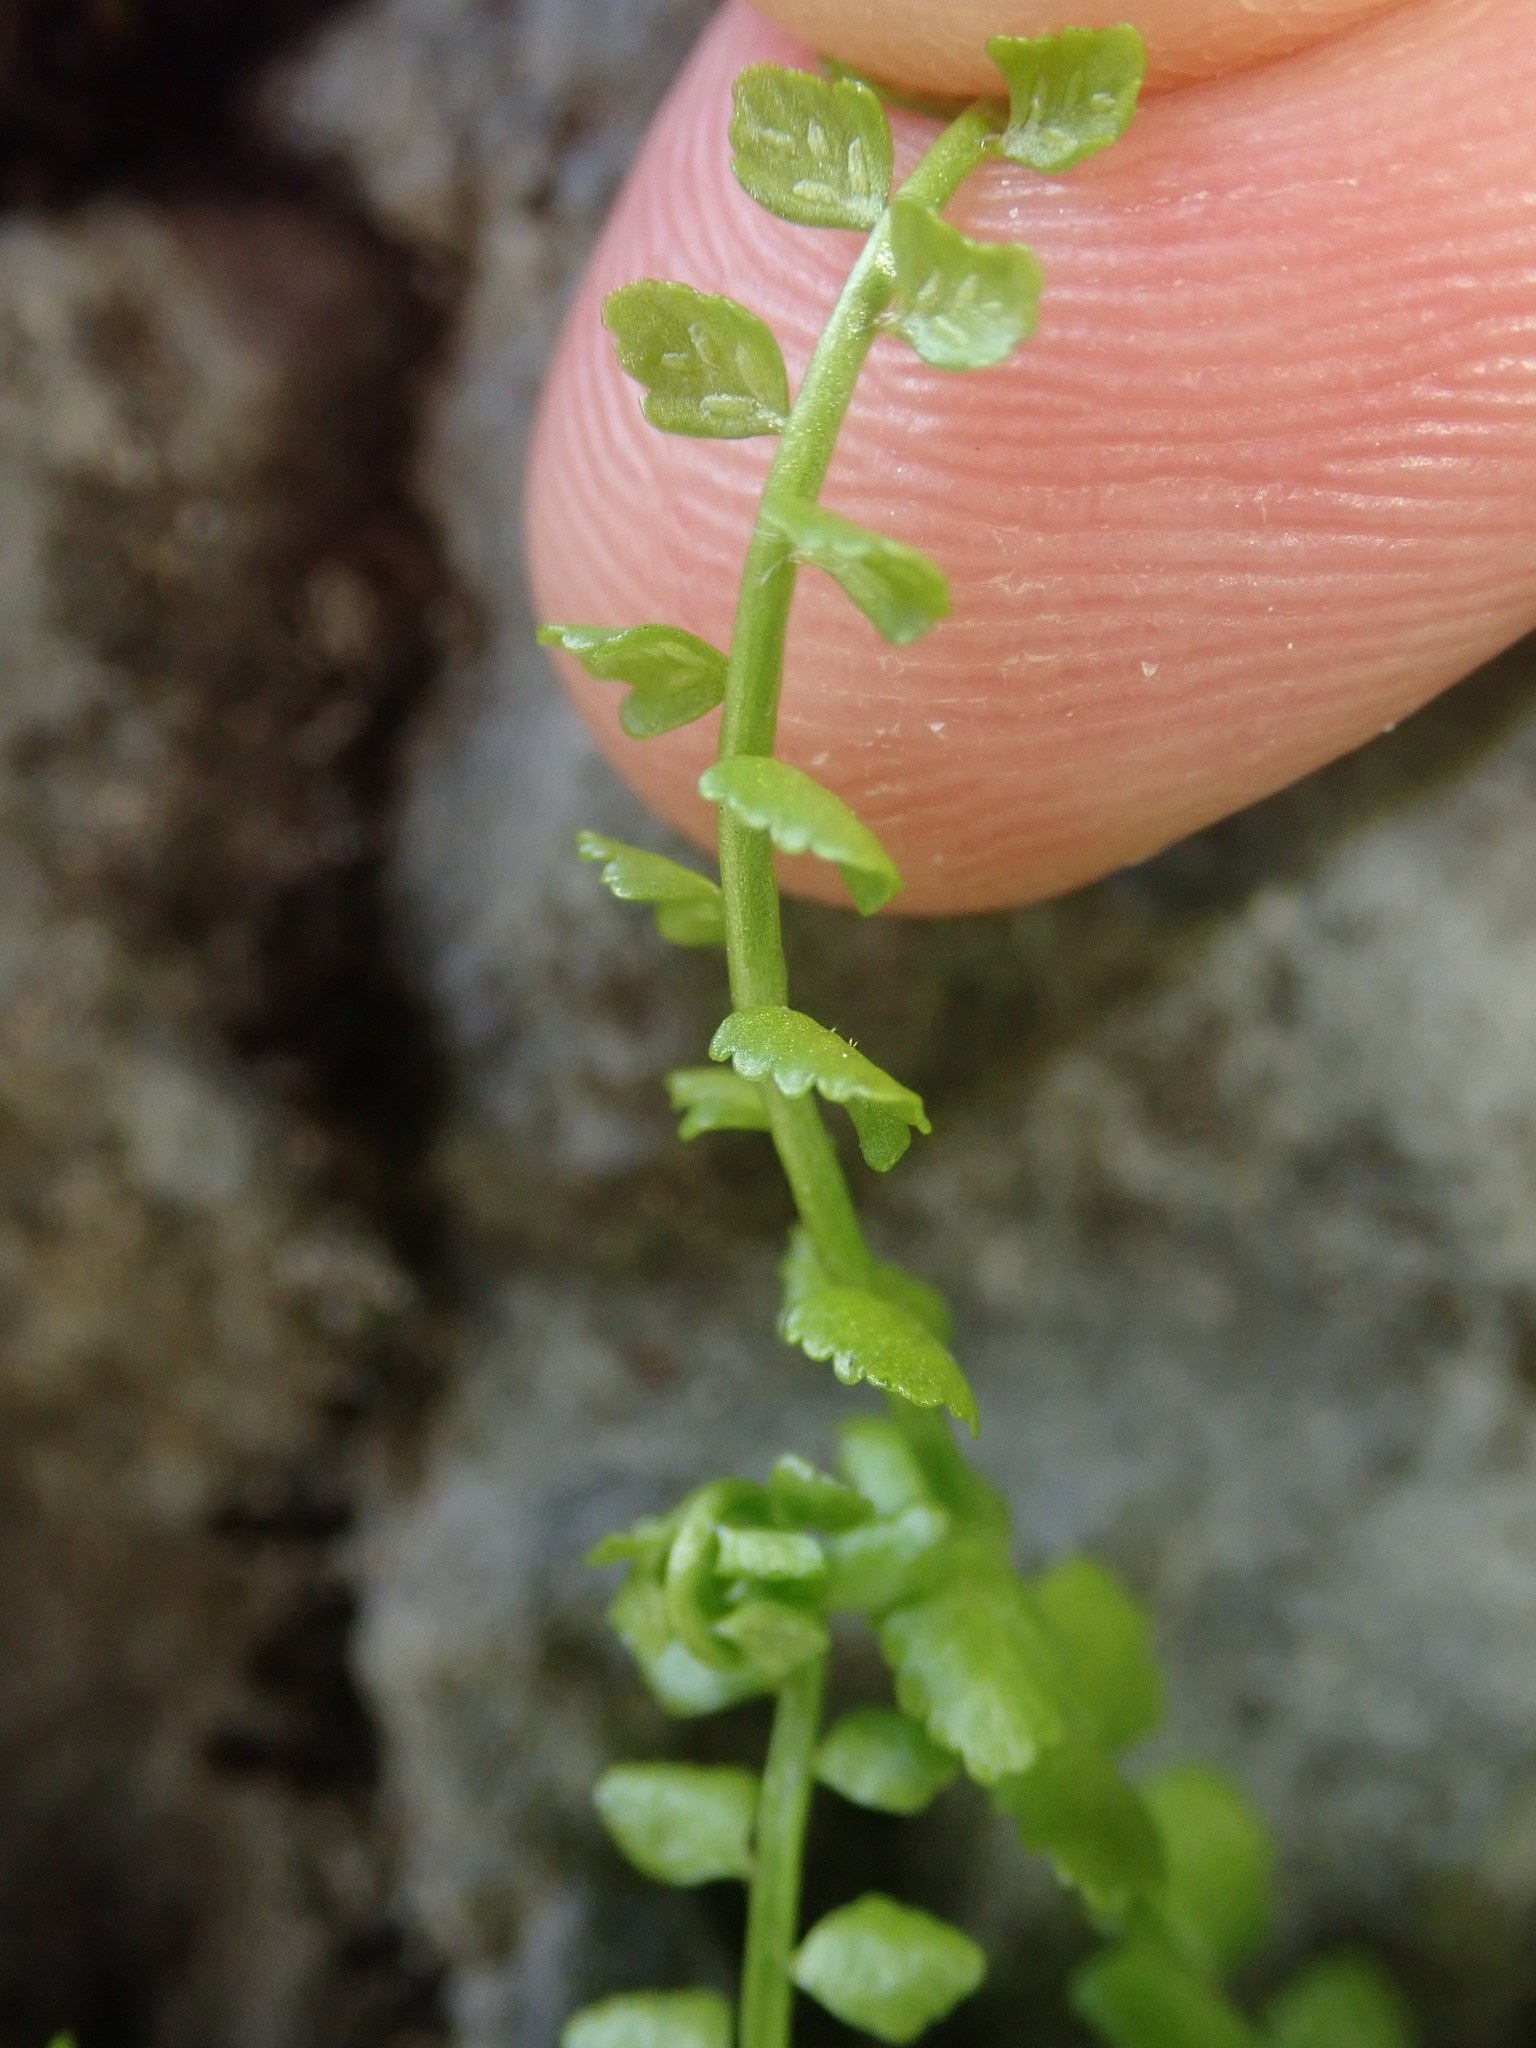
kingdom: Plantae
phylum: Tracheophyta
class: Polypodiopsida
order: Polypodiales
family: Aspleniaceae
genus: Asplenium
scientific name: Asplenium viride
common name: Green spleenwort
